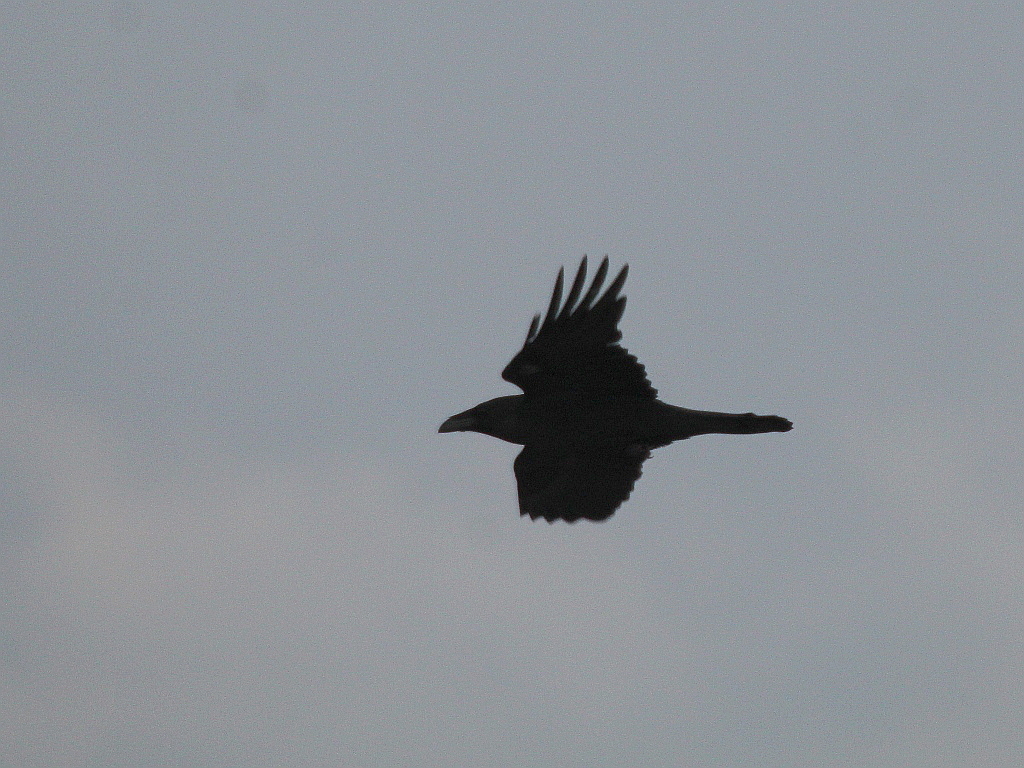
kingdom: Animalia
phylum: Chordata
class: Aves
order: Passeriformes
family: Corvidae
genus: Corvus
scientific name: Corvus corax
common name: Common raven
